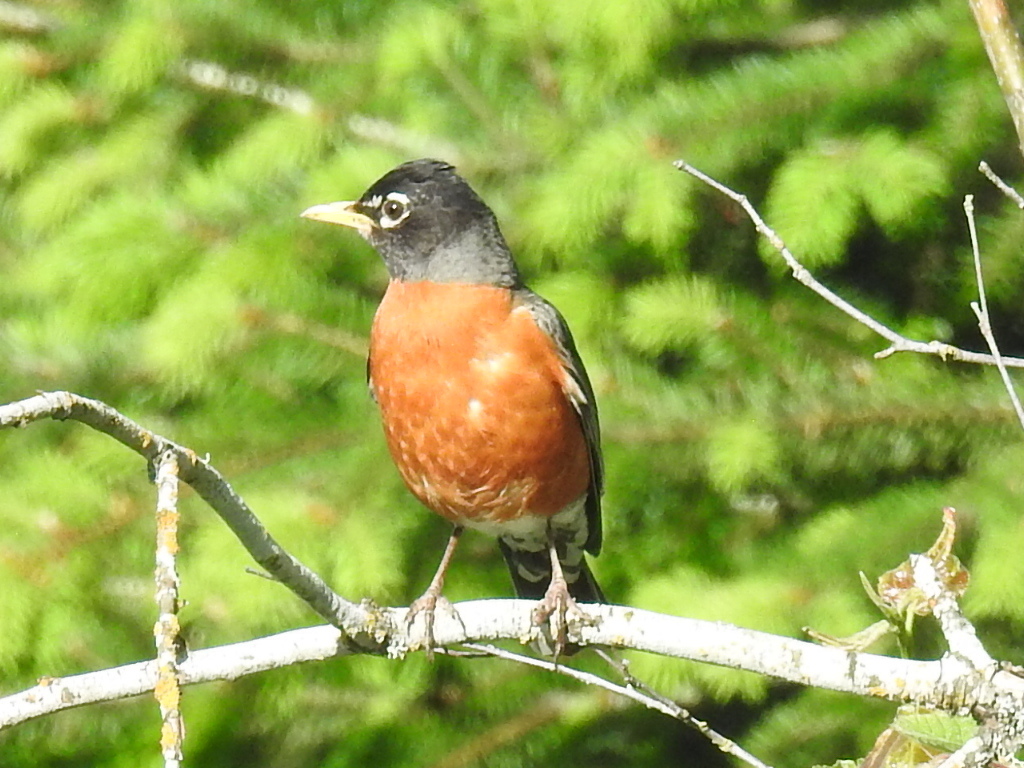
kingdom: Animalia
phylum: Chordata
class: Aves
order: Passeriformes
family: Turdidae
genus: Turdus
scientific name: Turdus migratorius
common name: American robin
